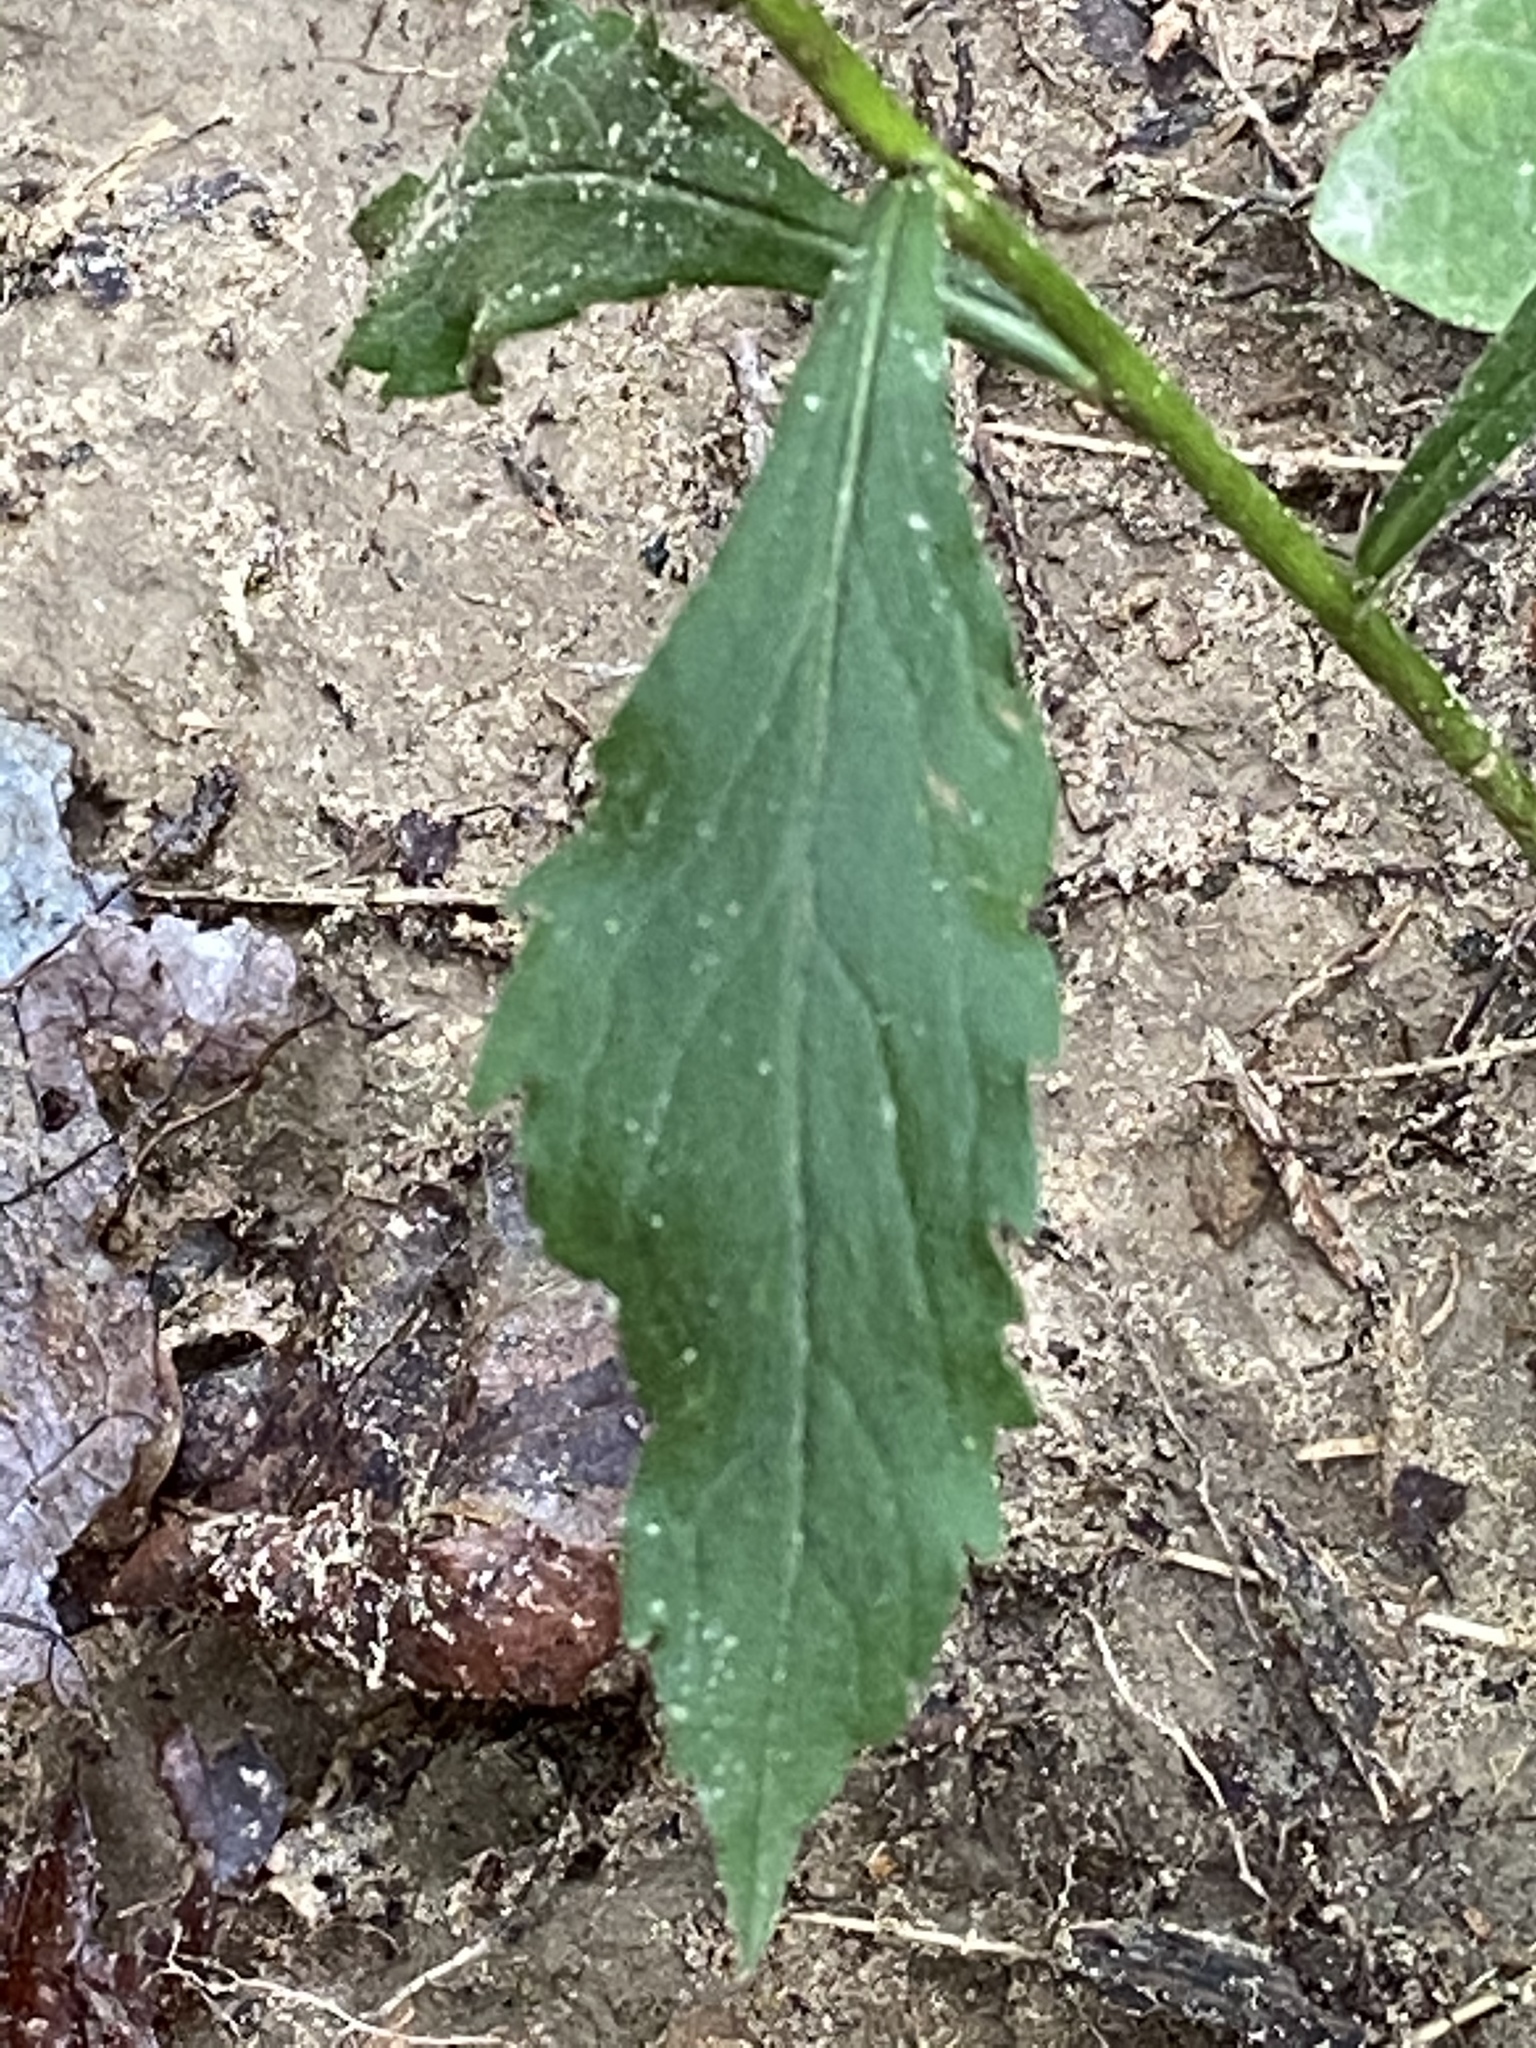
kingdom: Plantae
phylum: Tracheophyta
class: Magnoliopsida
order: Asterales
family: Asteraceae
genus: Solidago
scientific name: Solidago ulmifolia
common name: Elm-leaf goldenrod
